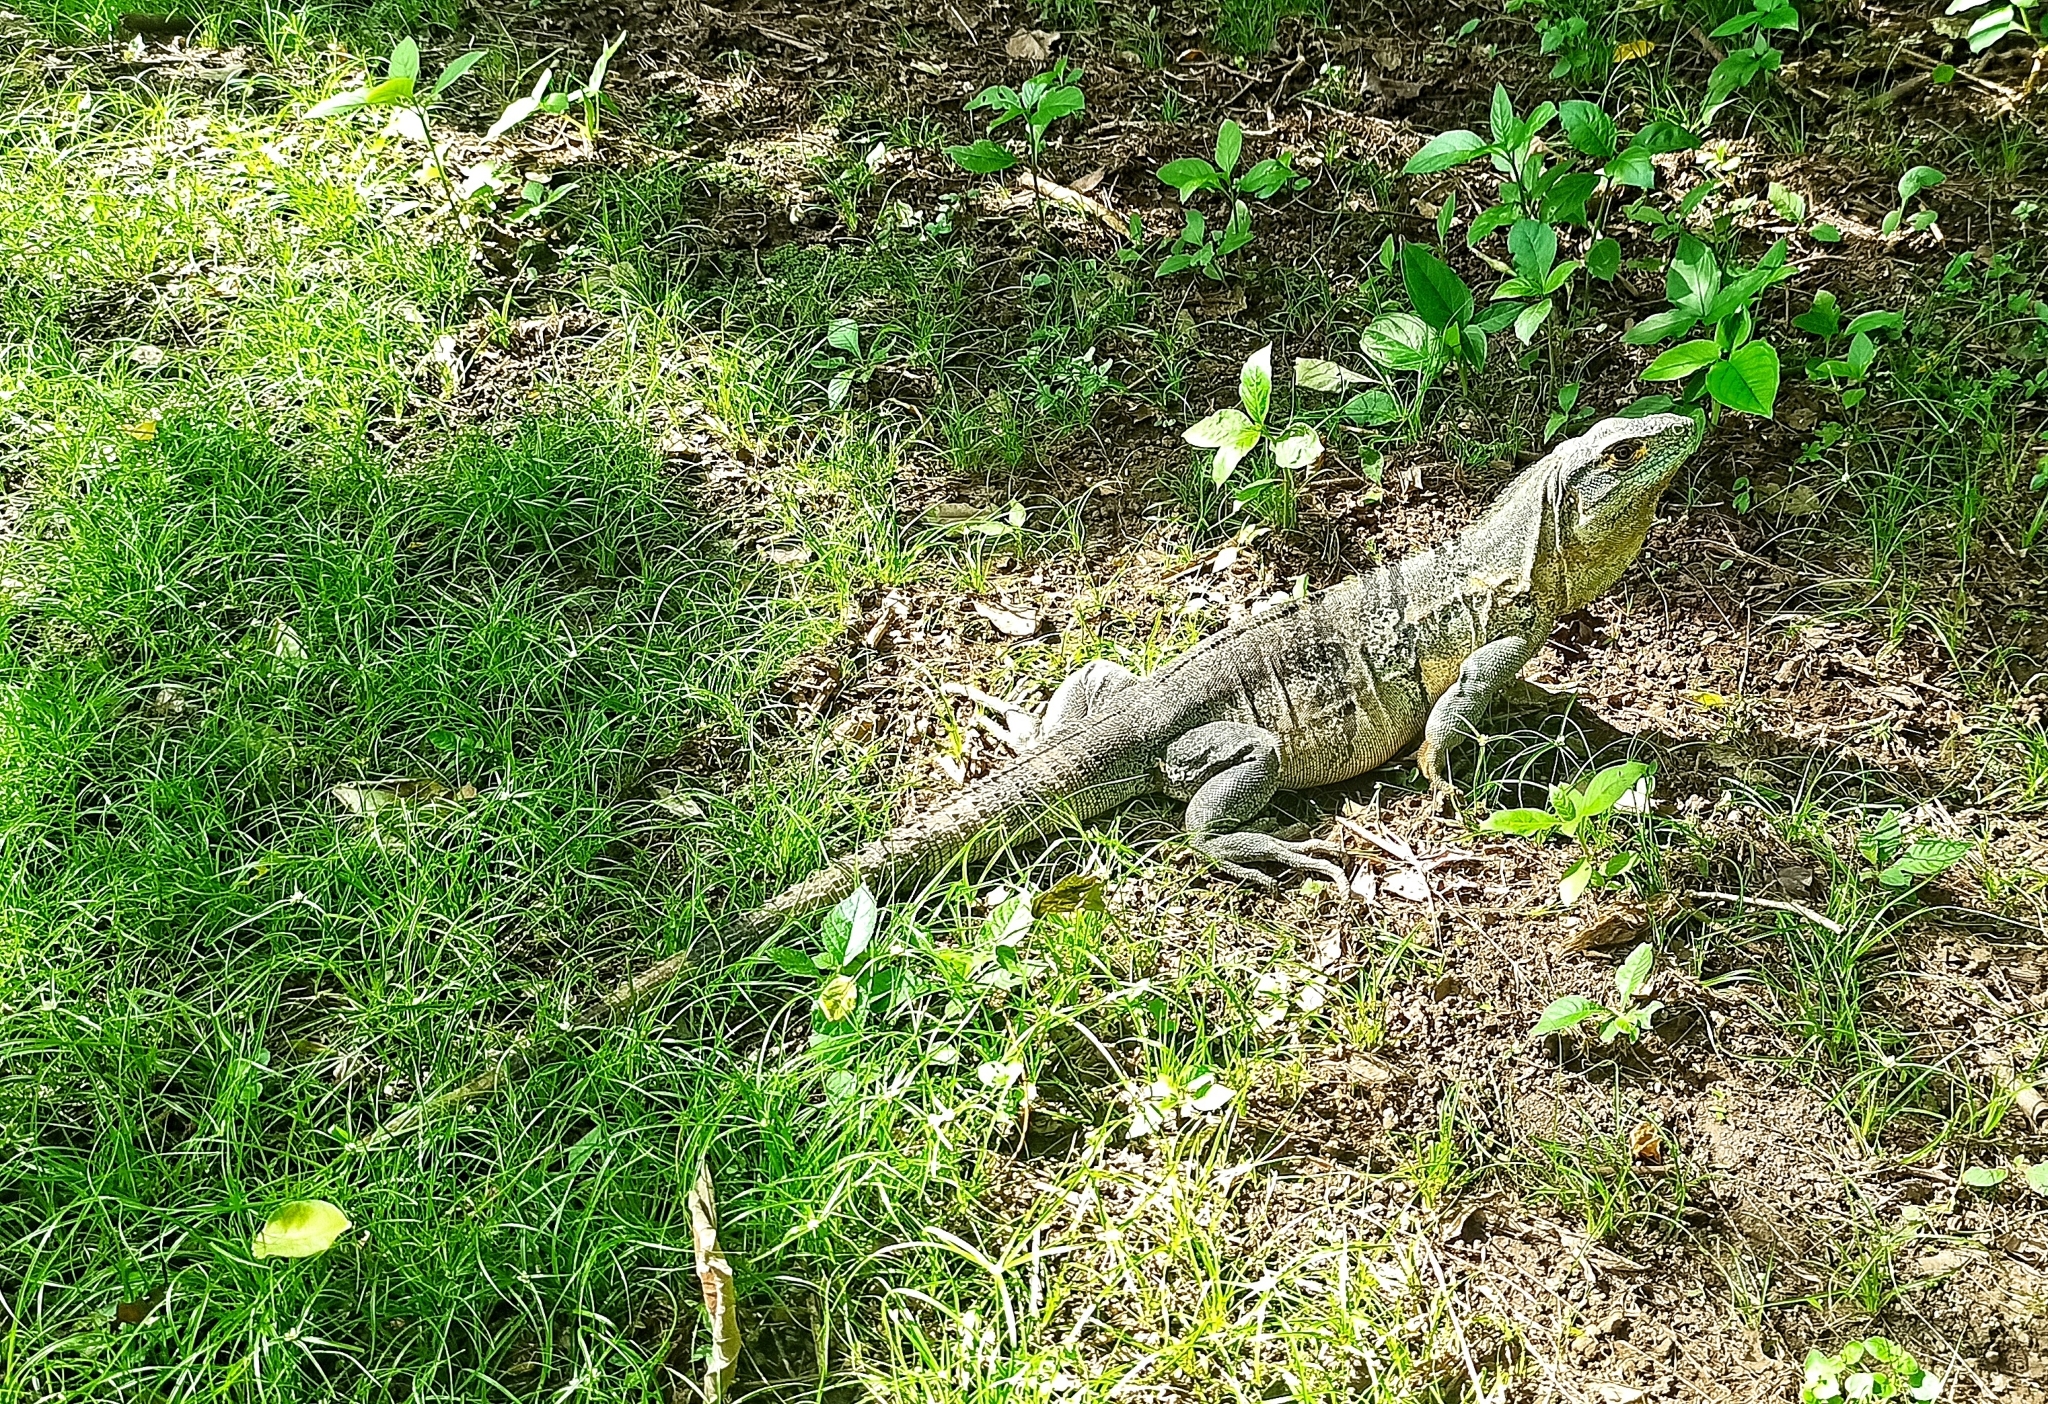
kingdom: Animalia
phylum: Chordata
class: Squamata
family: Iguanidae
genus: Ctenosaura
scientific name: Ctenosaura similis
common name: Black spiny-tailed iguana
